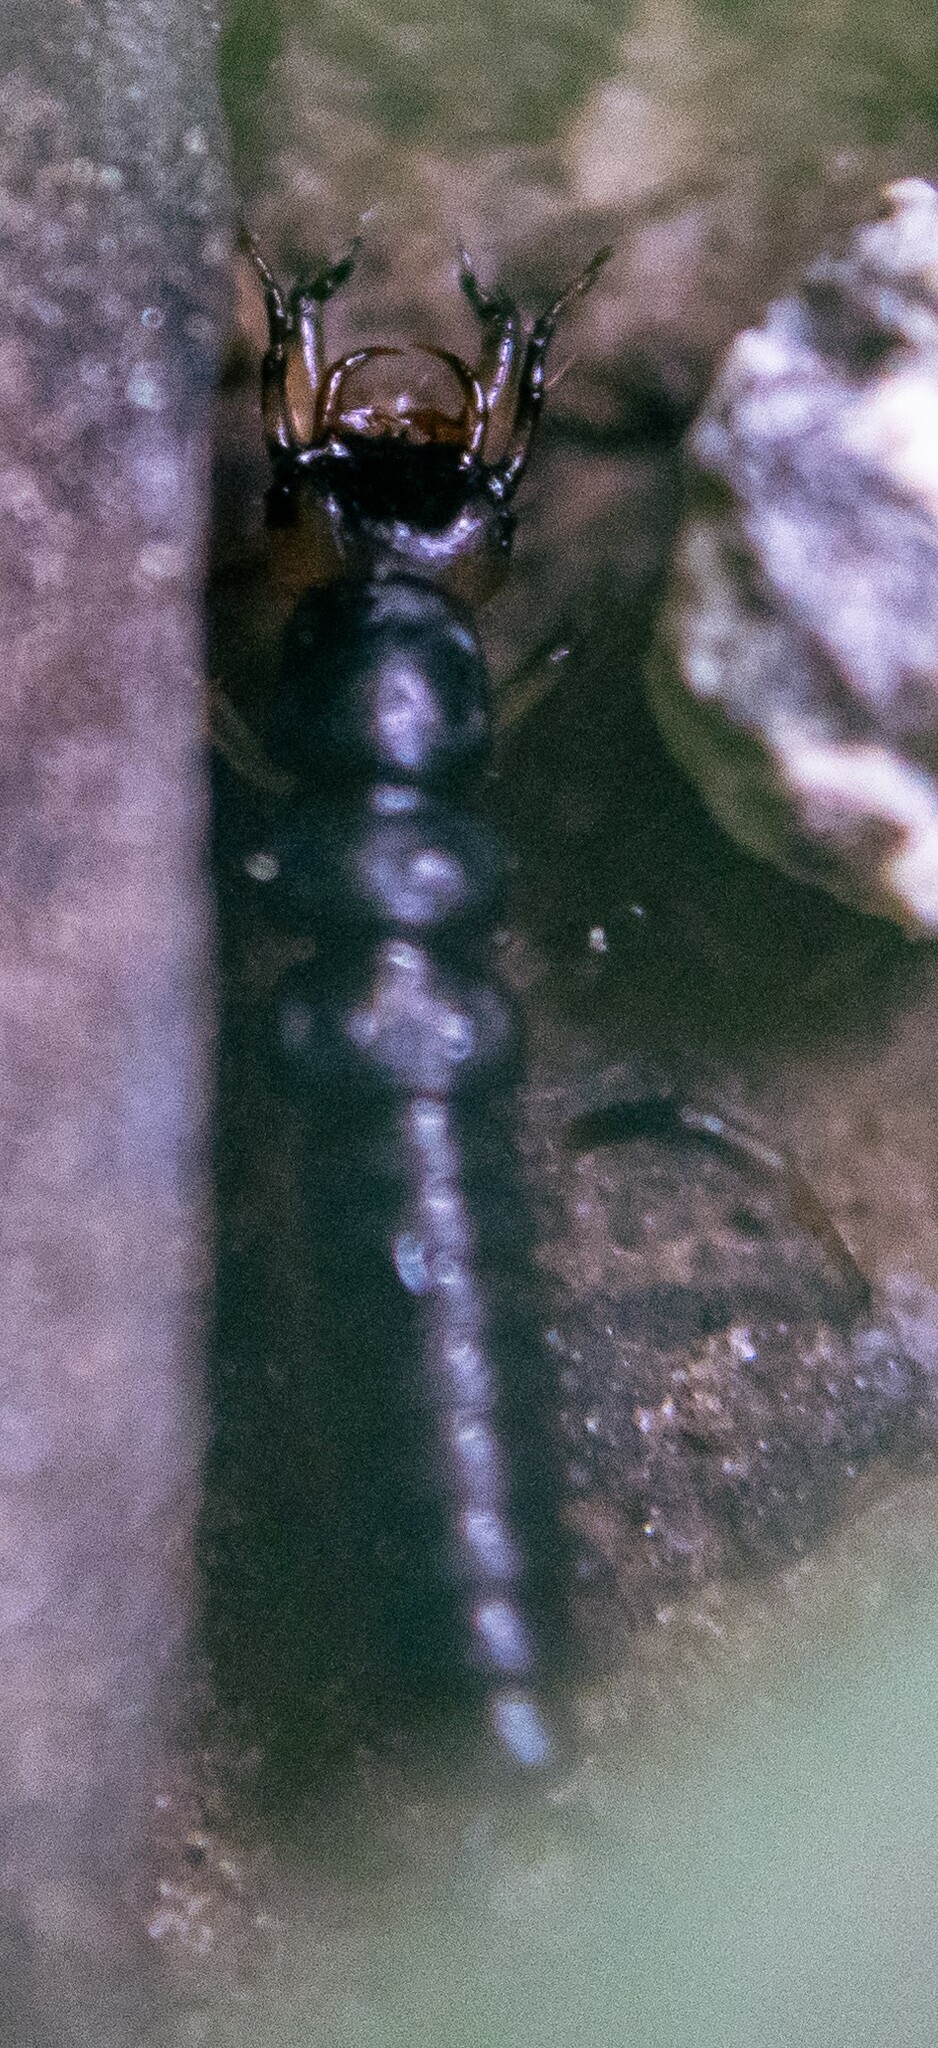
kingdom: Animalia
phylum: Arthropoda
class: Insecta
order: Coleoptera
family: Carabidae
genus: Loricera
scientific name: Loricera pilicornis
